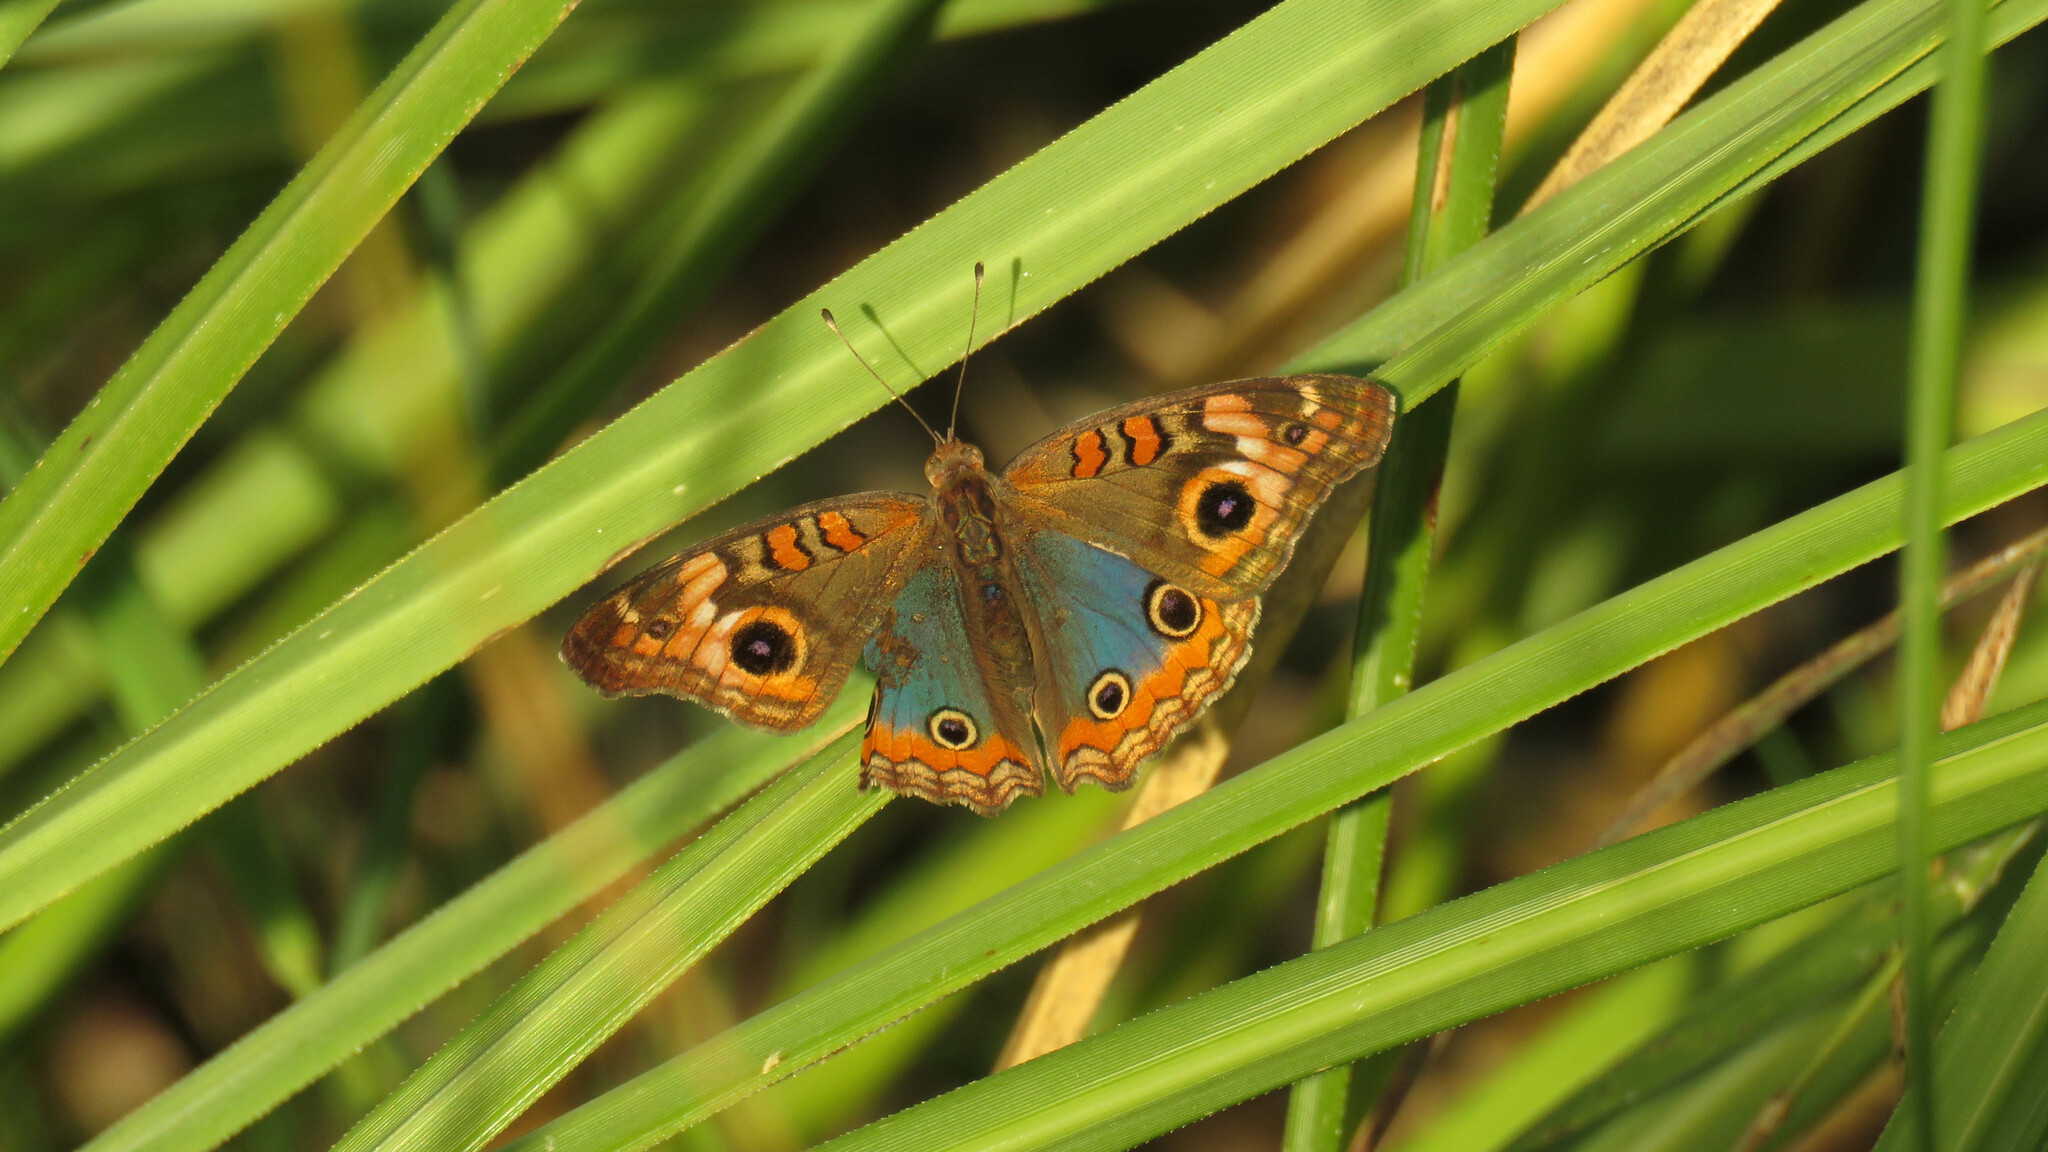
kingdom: Animalia
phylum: Arthropoda
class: Insecta
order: Lepidoptera
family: Nymphalidae
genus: Junonia
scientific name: Junonia lavinia
